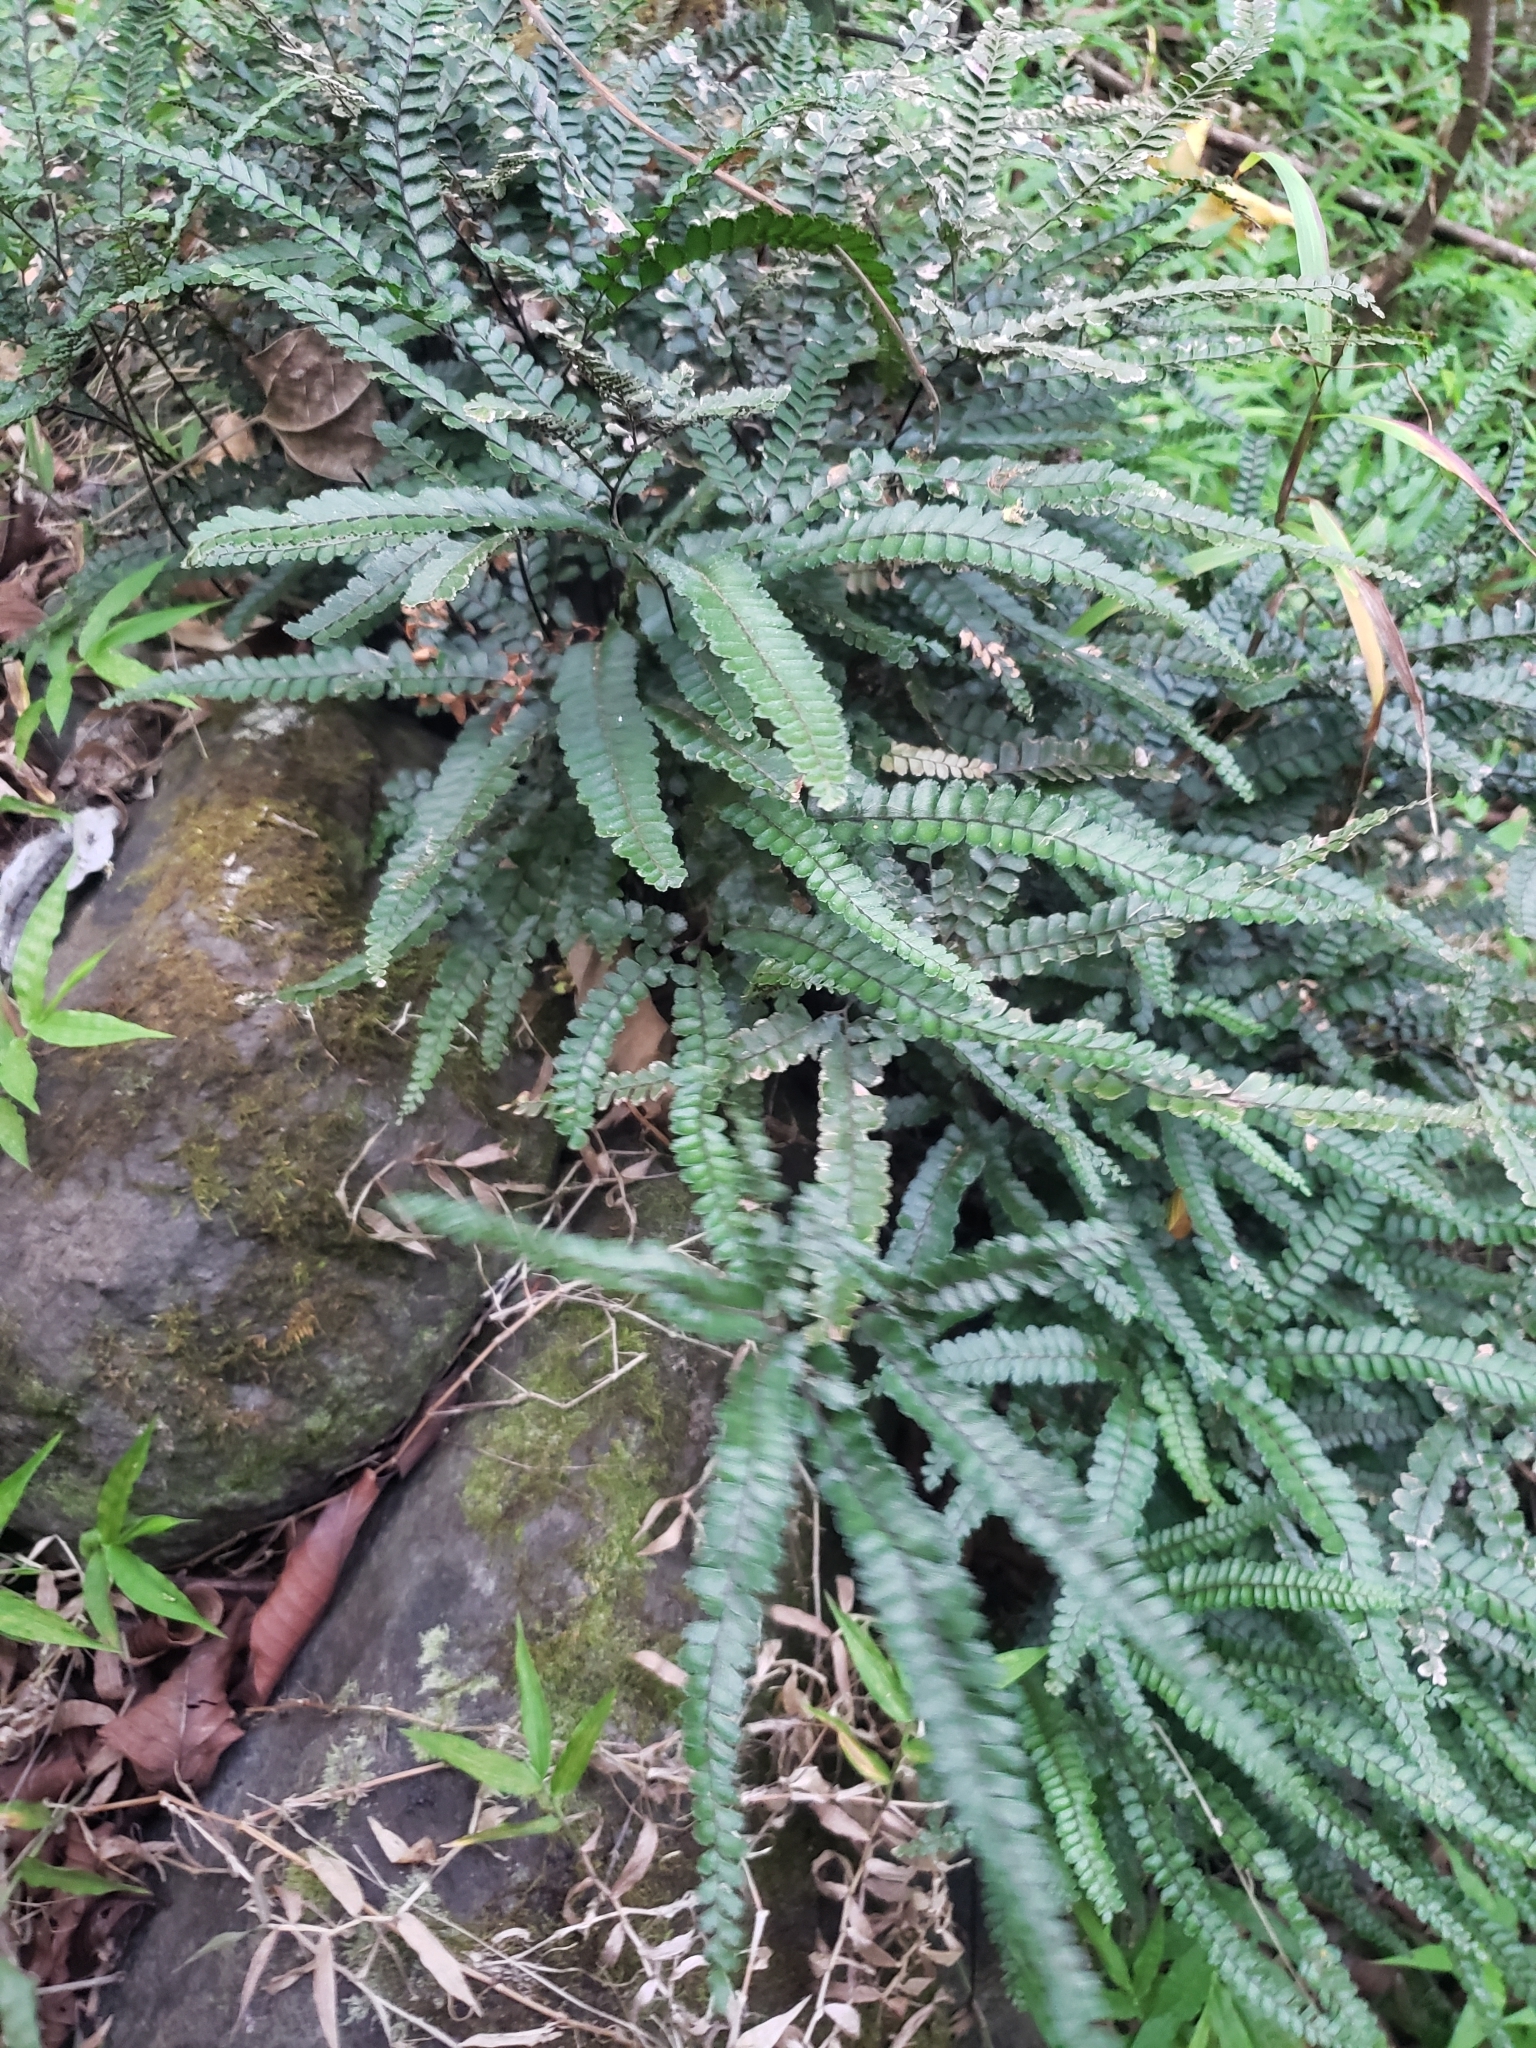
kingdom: Plantae
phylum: Tracheophyta
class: Polypodiopsida
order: Polypodiales
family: Pteridaceae
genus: Adiantum
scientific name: Adiantum hispidulum
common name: Rough maidenhair
